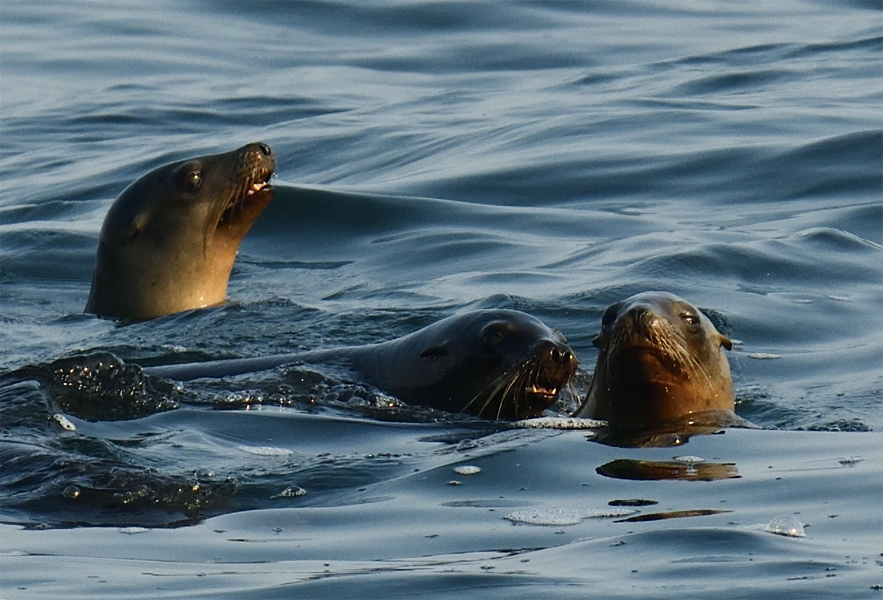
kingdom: Animalia
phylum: Chordata
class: Mammalia
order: Carnivora
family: Otariidae
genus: Zalophus
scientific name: Zalophus californianus
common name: California sea lion
